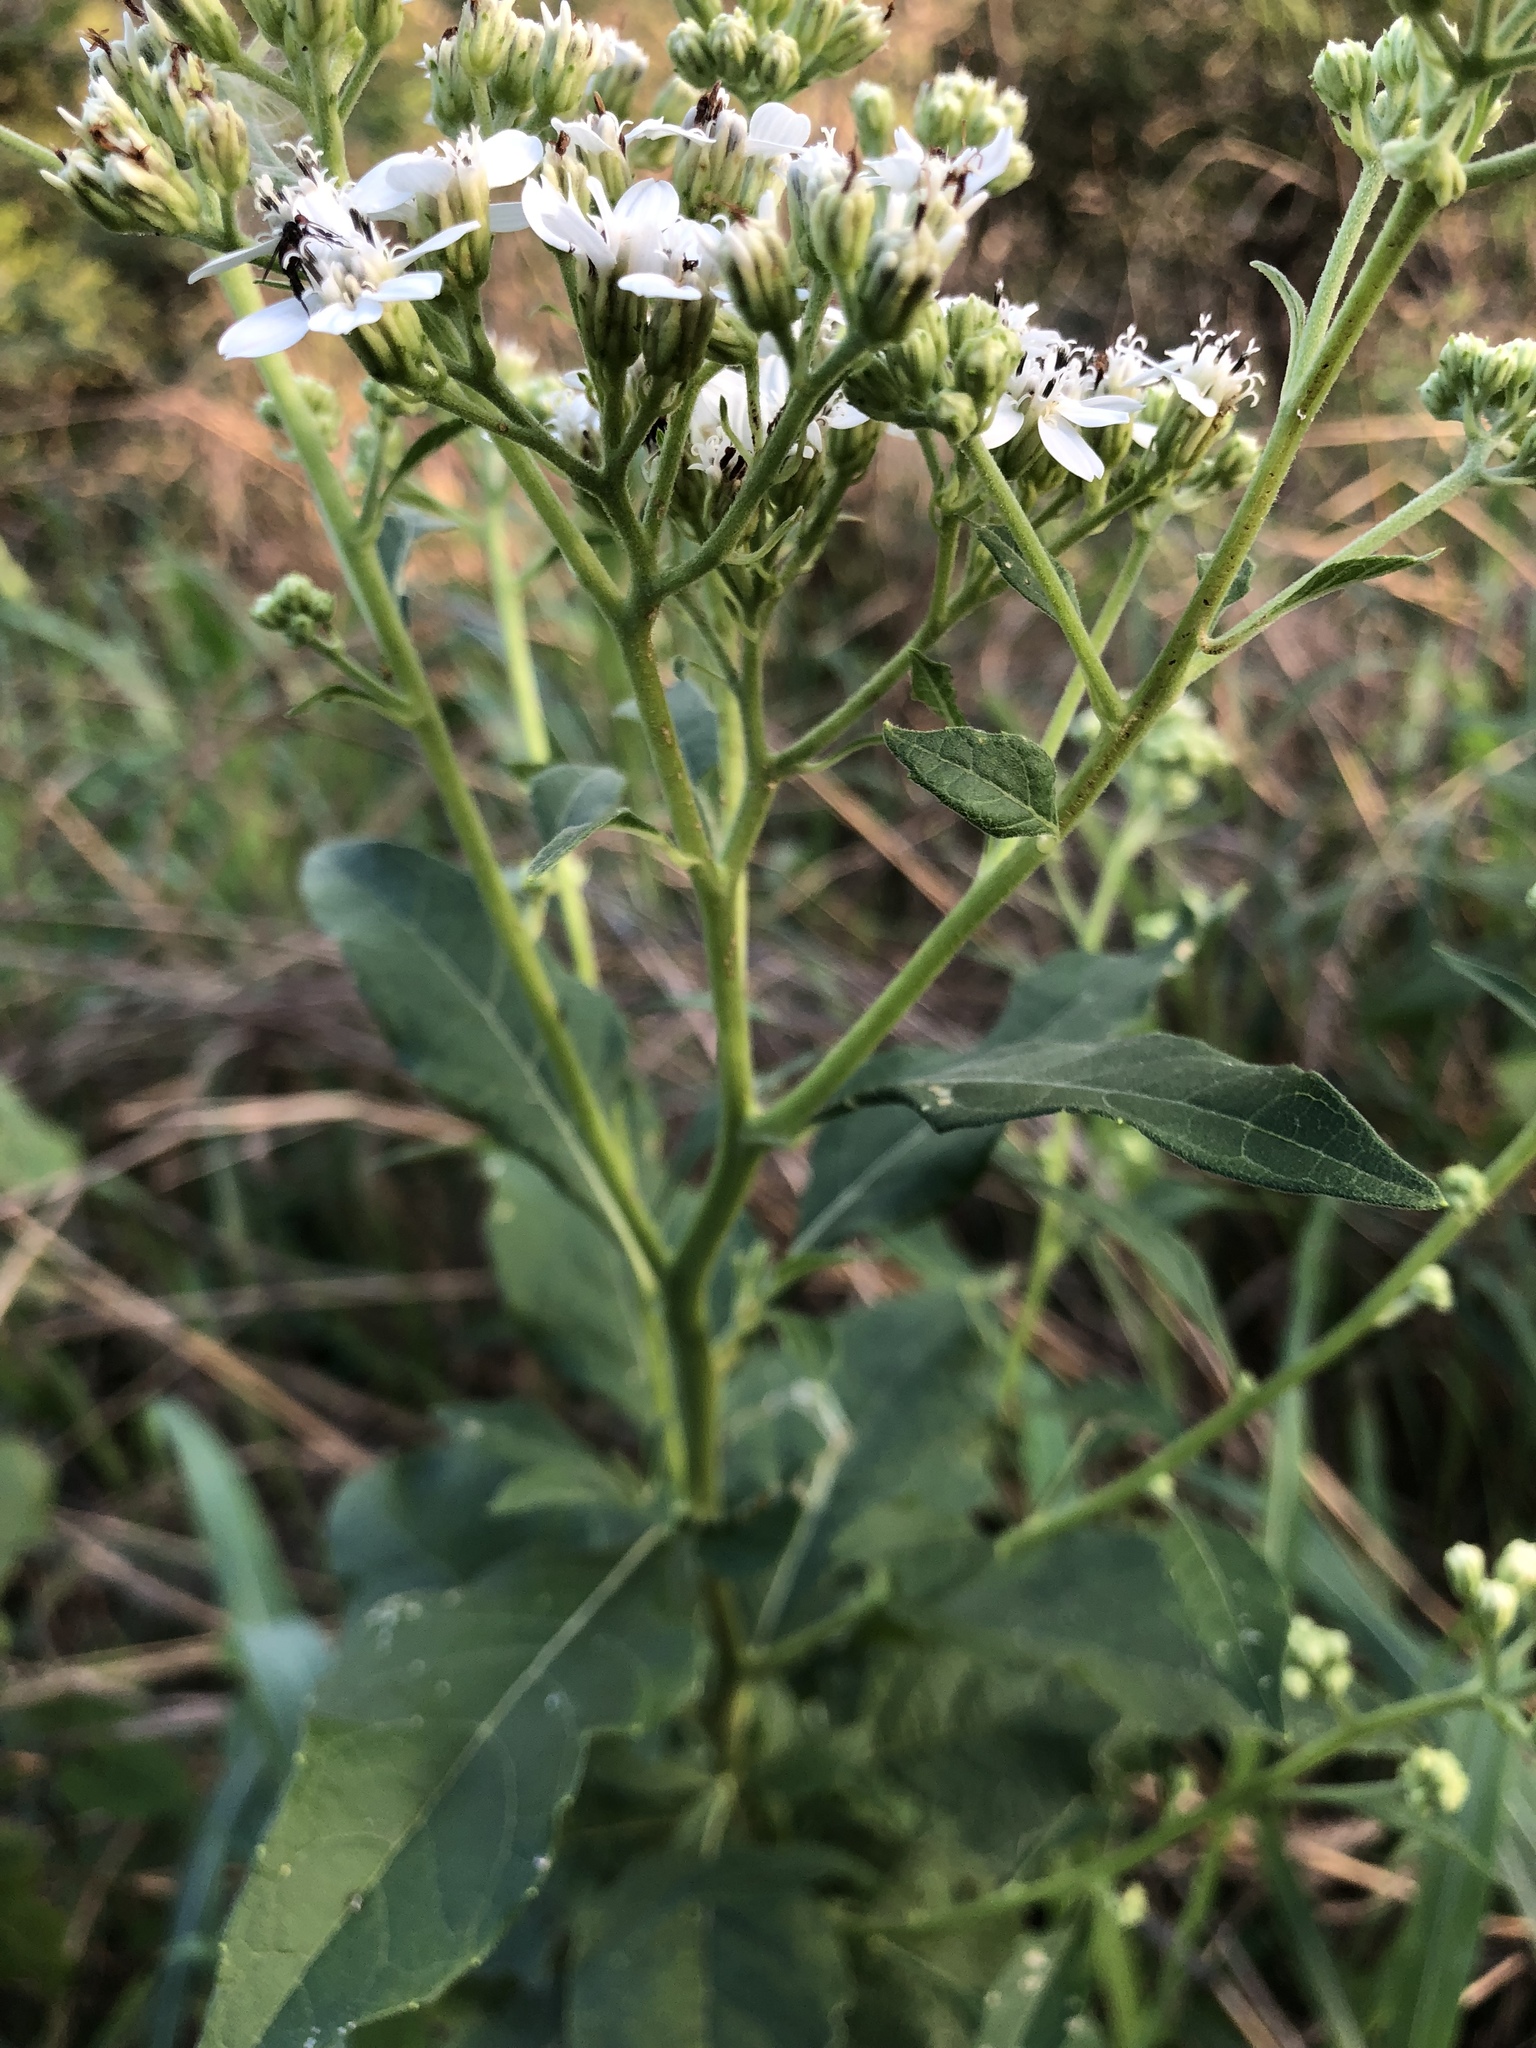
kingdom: Plantae
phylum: Tracheophyta
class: Magnoliopsida
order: Asterales
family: Asteraceae
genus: Verbesina
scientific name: Verbesina virginica
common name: Frostweed
